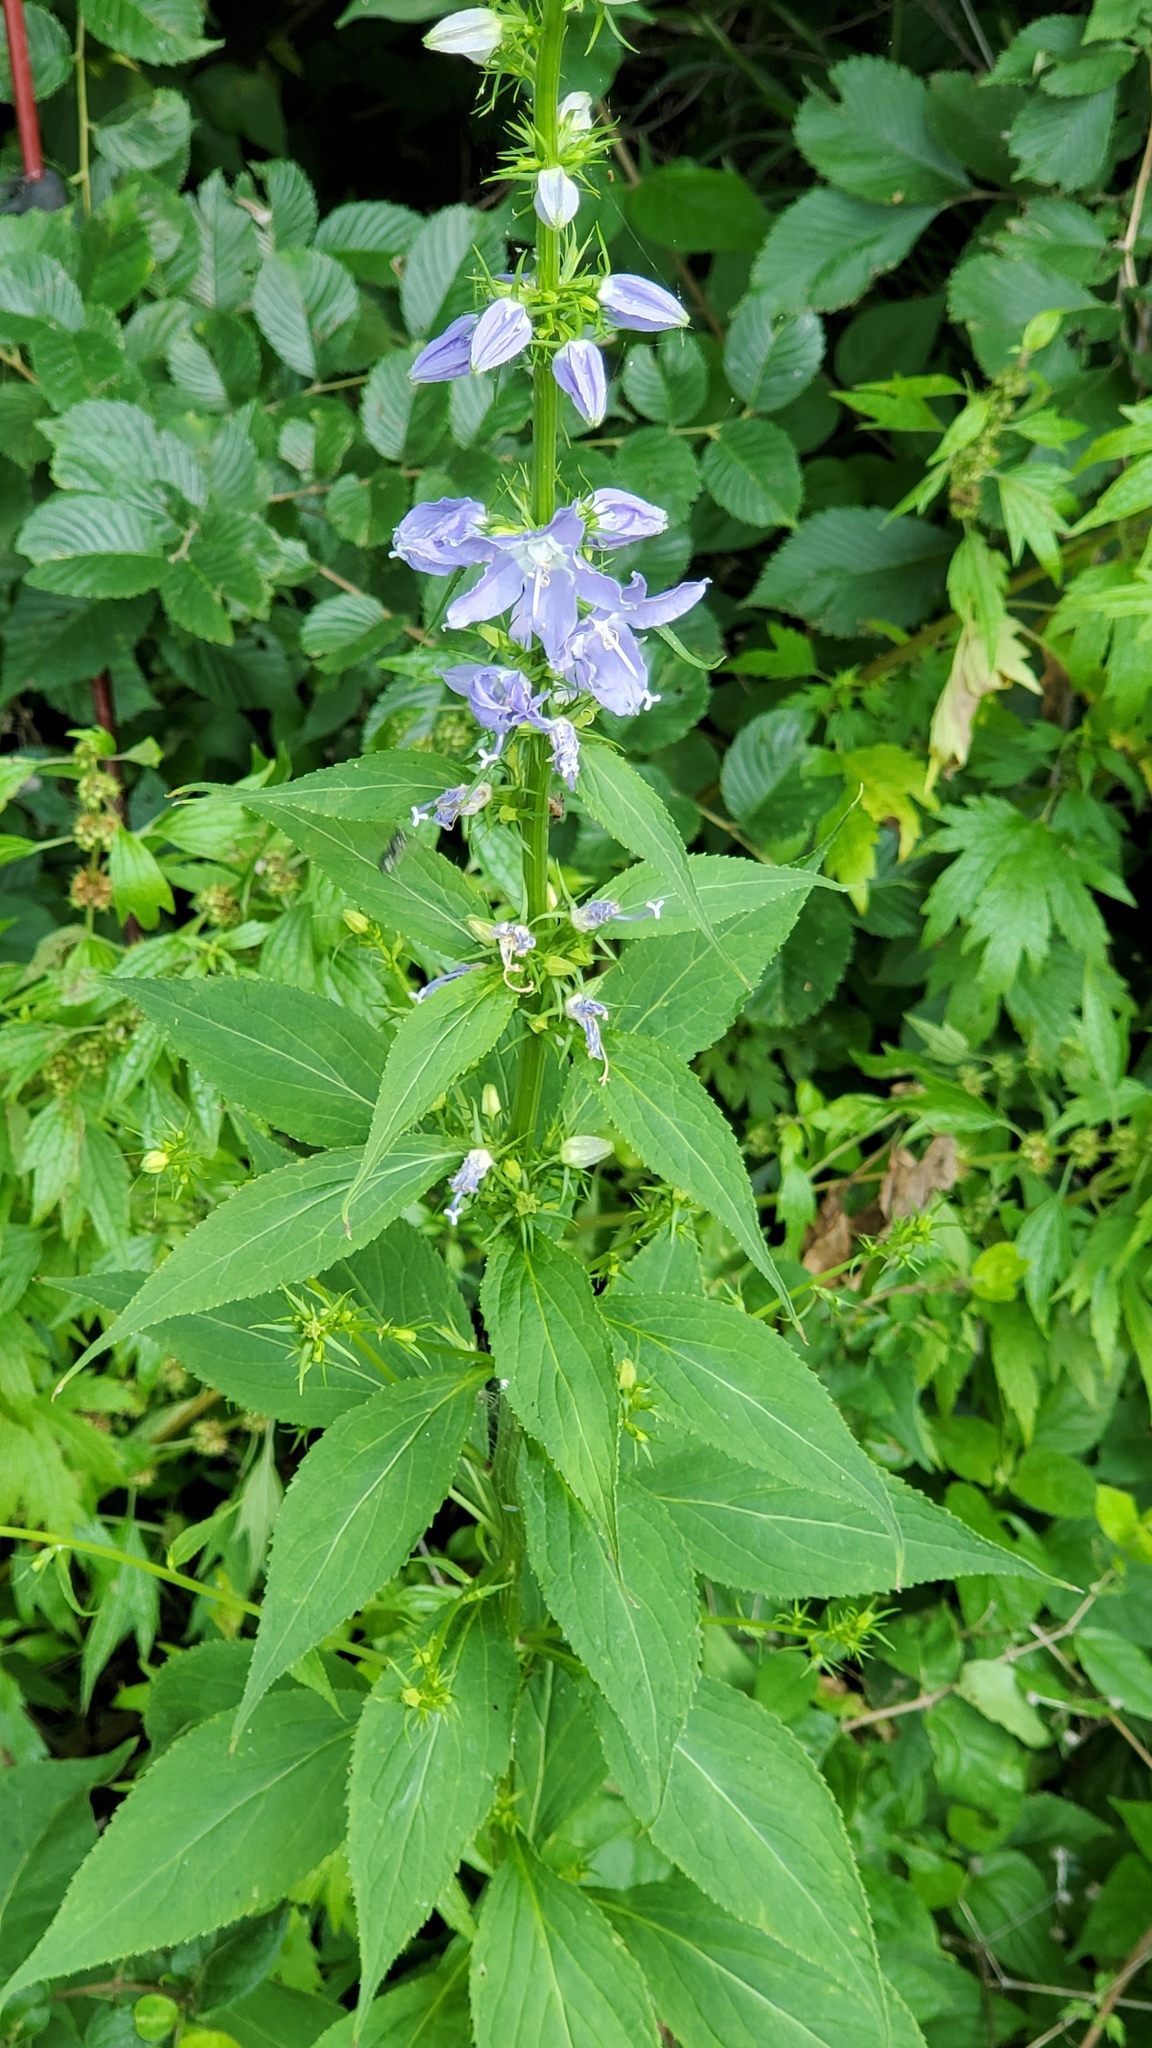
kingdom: Plantae
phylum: Tracheophyta
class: Magnoliopsida
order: Asterales
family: Campanulaceae
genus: Campanulastrum
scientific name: Campanulastrum americanum
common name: American bellflower
